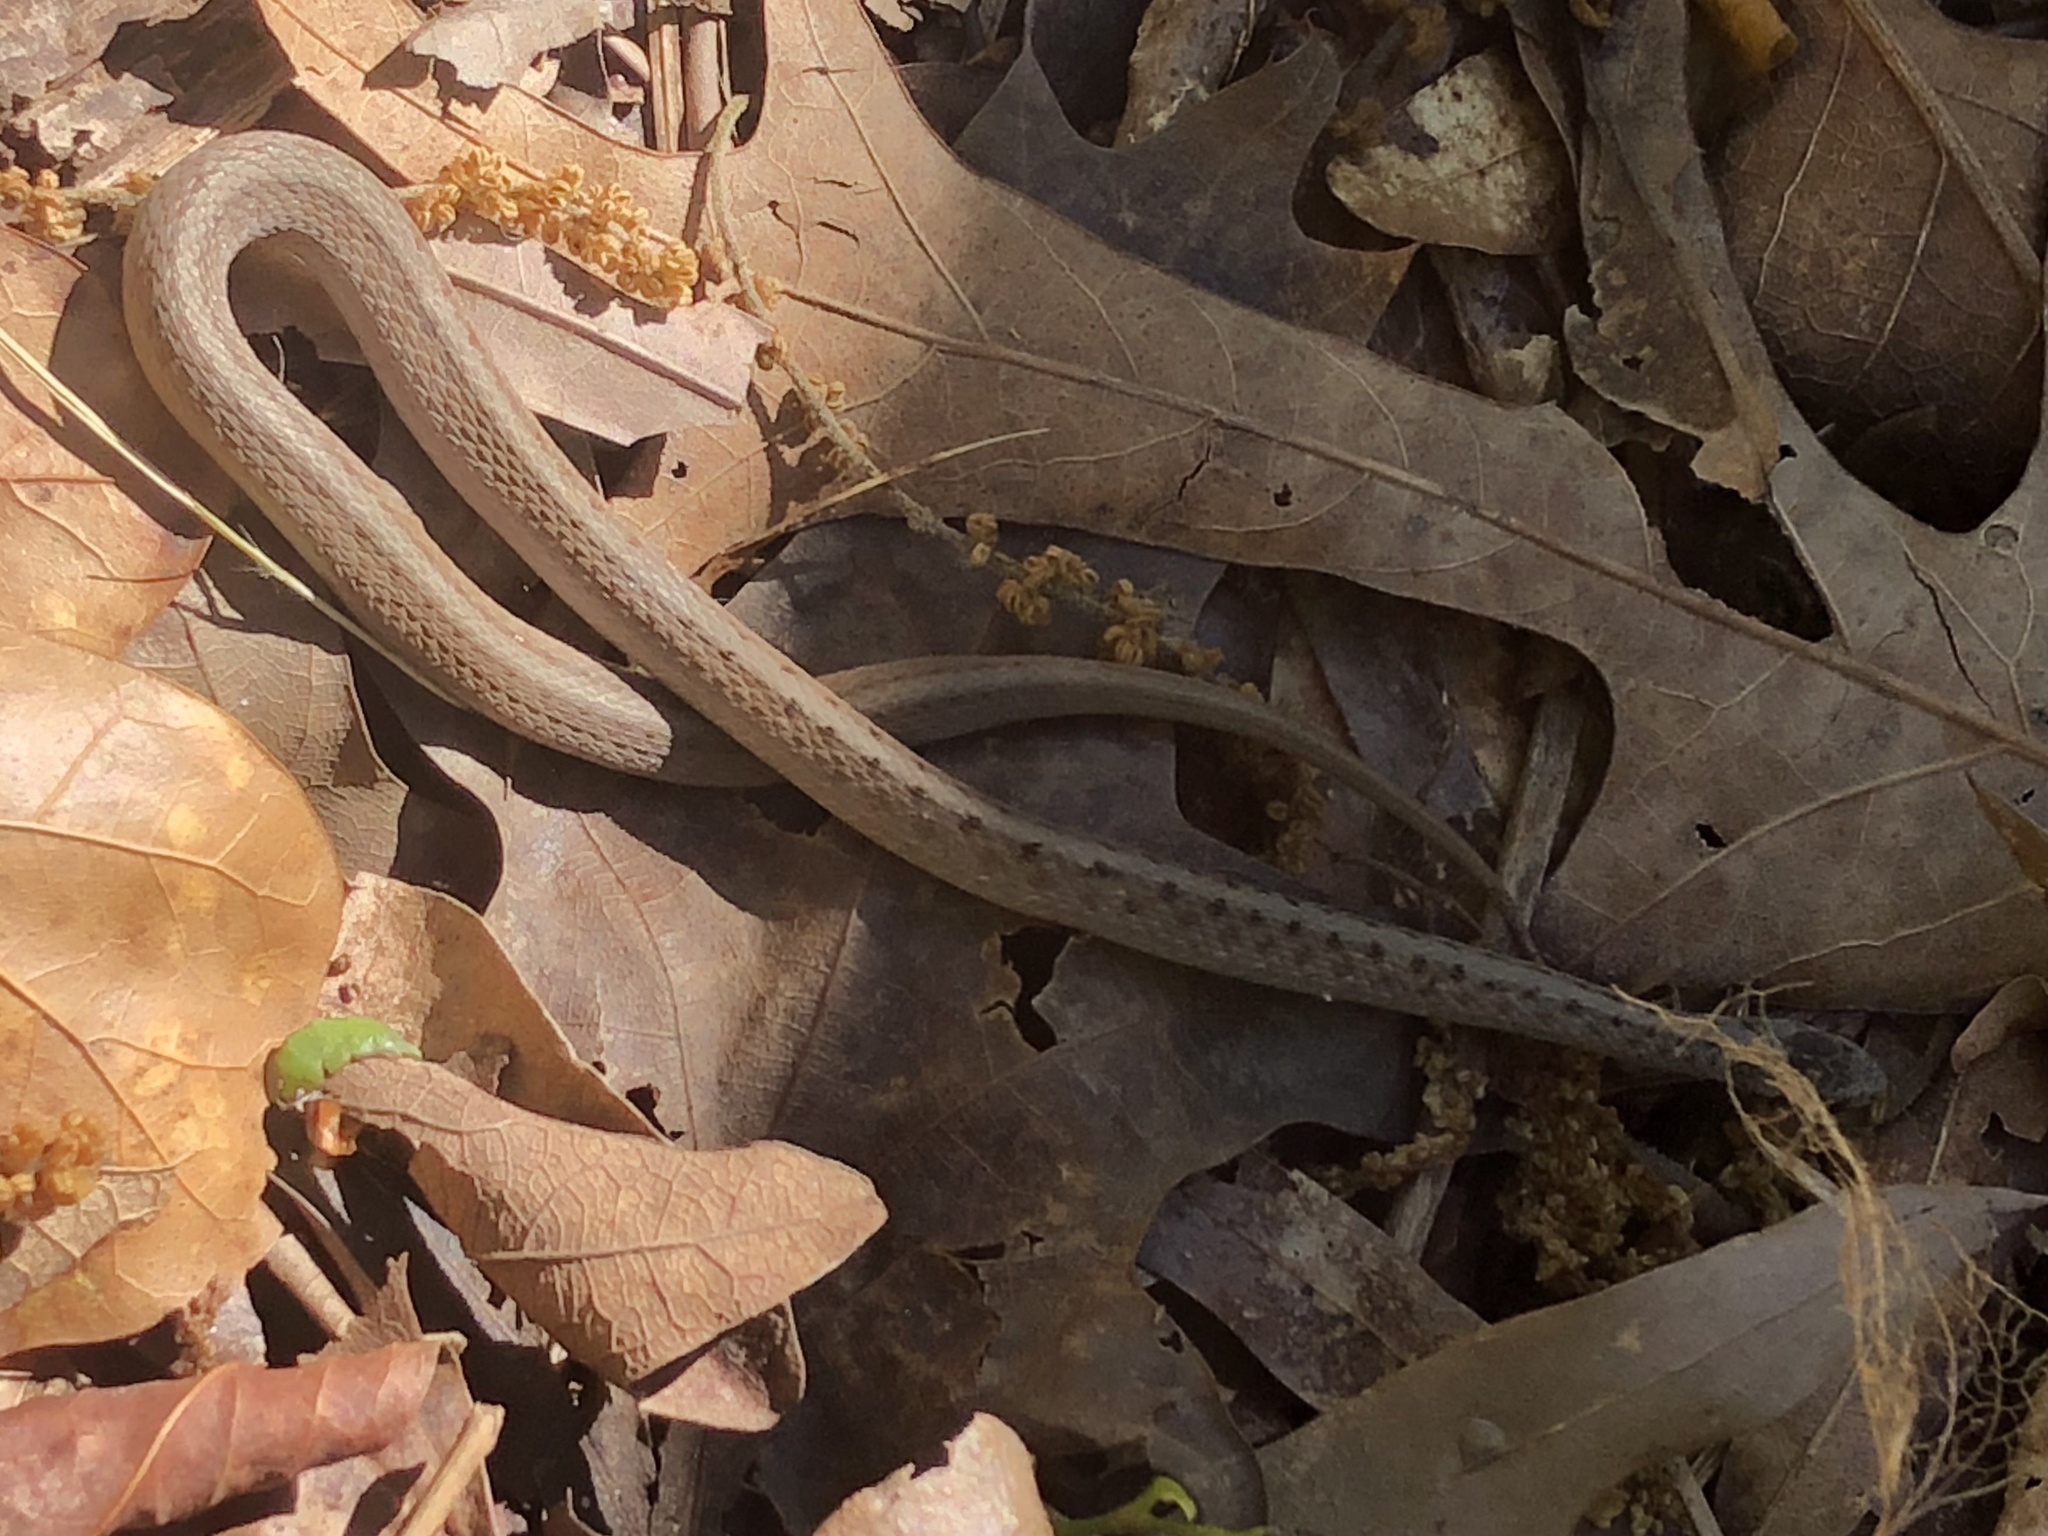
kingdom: Animalia
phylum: Chordata
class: Squamata
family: Colubridae
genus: Storeria
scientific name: Storeria dekayi
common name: (dekay’s) brown snake
